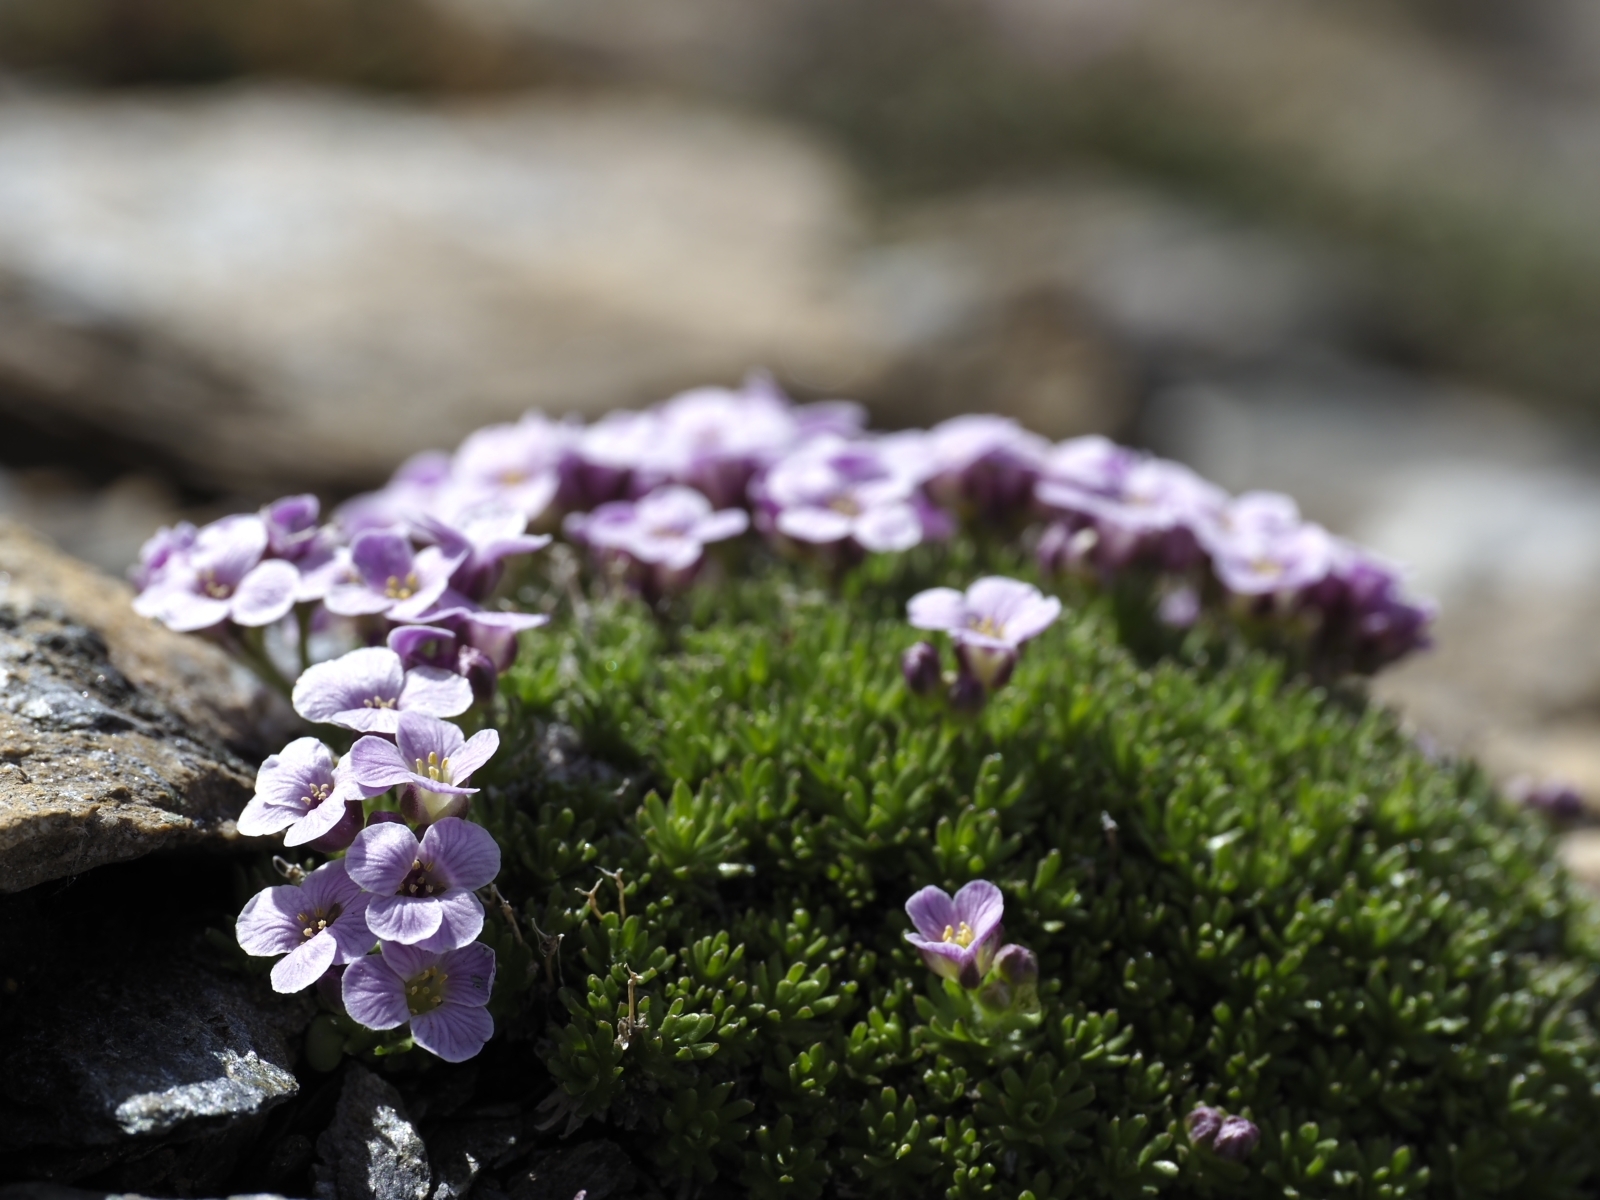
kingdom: Plantae
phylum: Tracheophyta
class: Magnoliopsida
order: Brassicales
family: Brassicaceae
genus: Petrocallis
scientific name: Petrocallis pyrenaica
